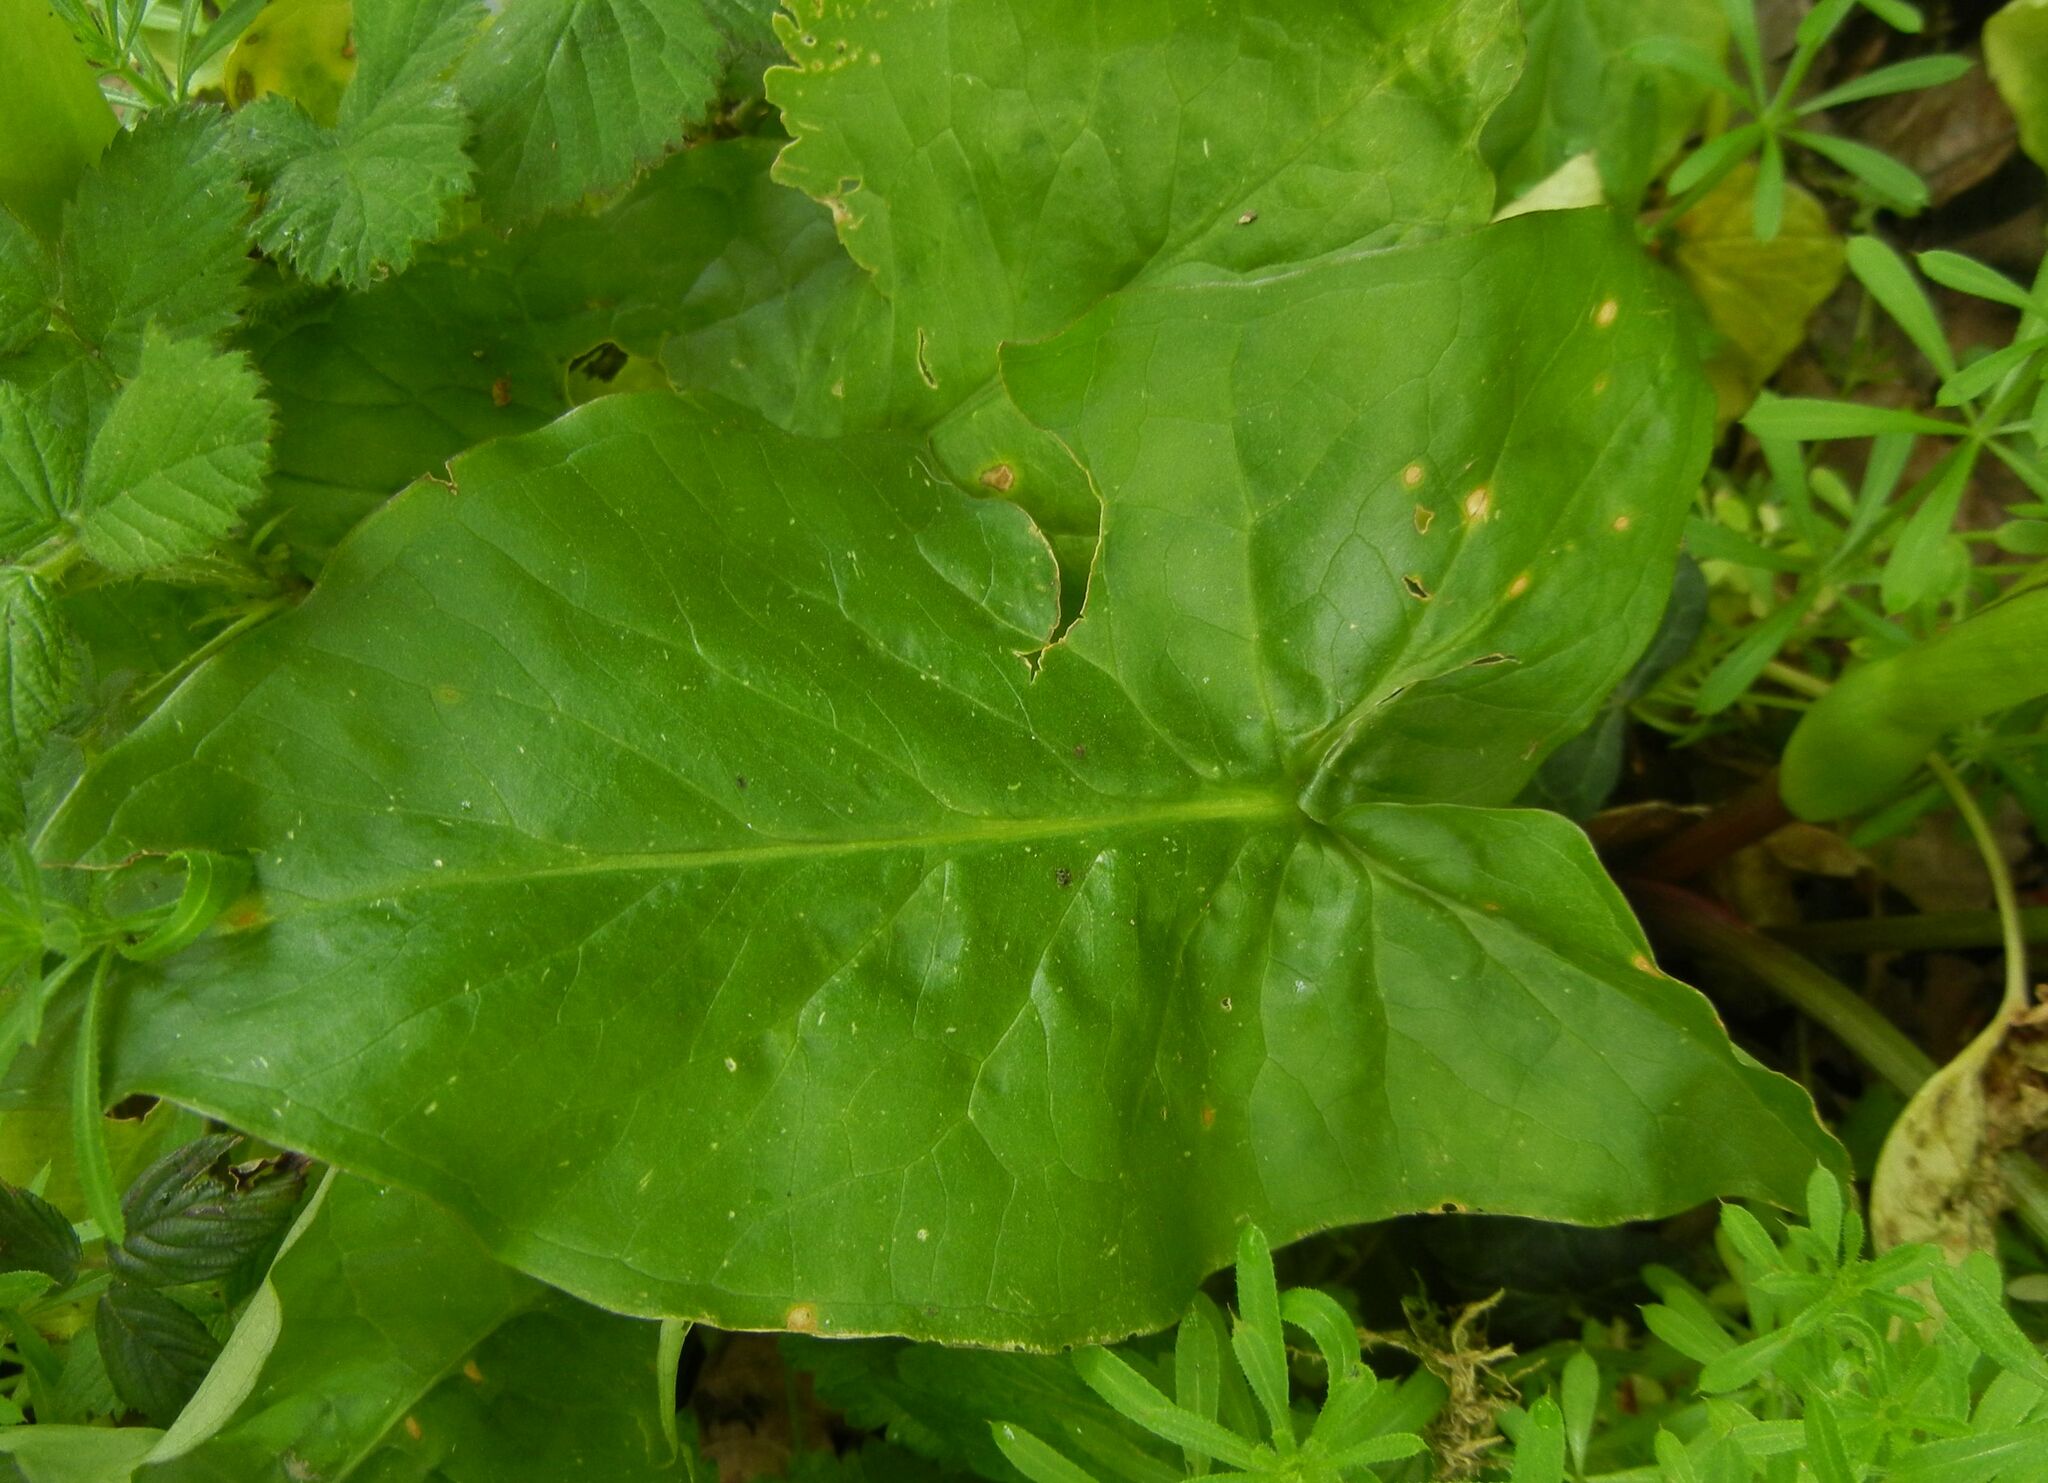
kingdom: Plantae
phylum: Tracheophyta
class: Liliopsida
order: Alismatales
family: Araceae
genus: Arum
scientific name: Arum maculatum
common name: Lords-and-ladies
